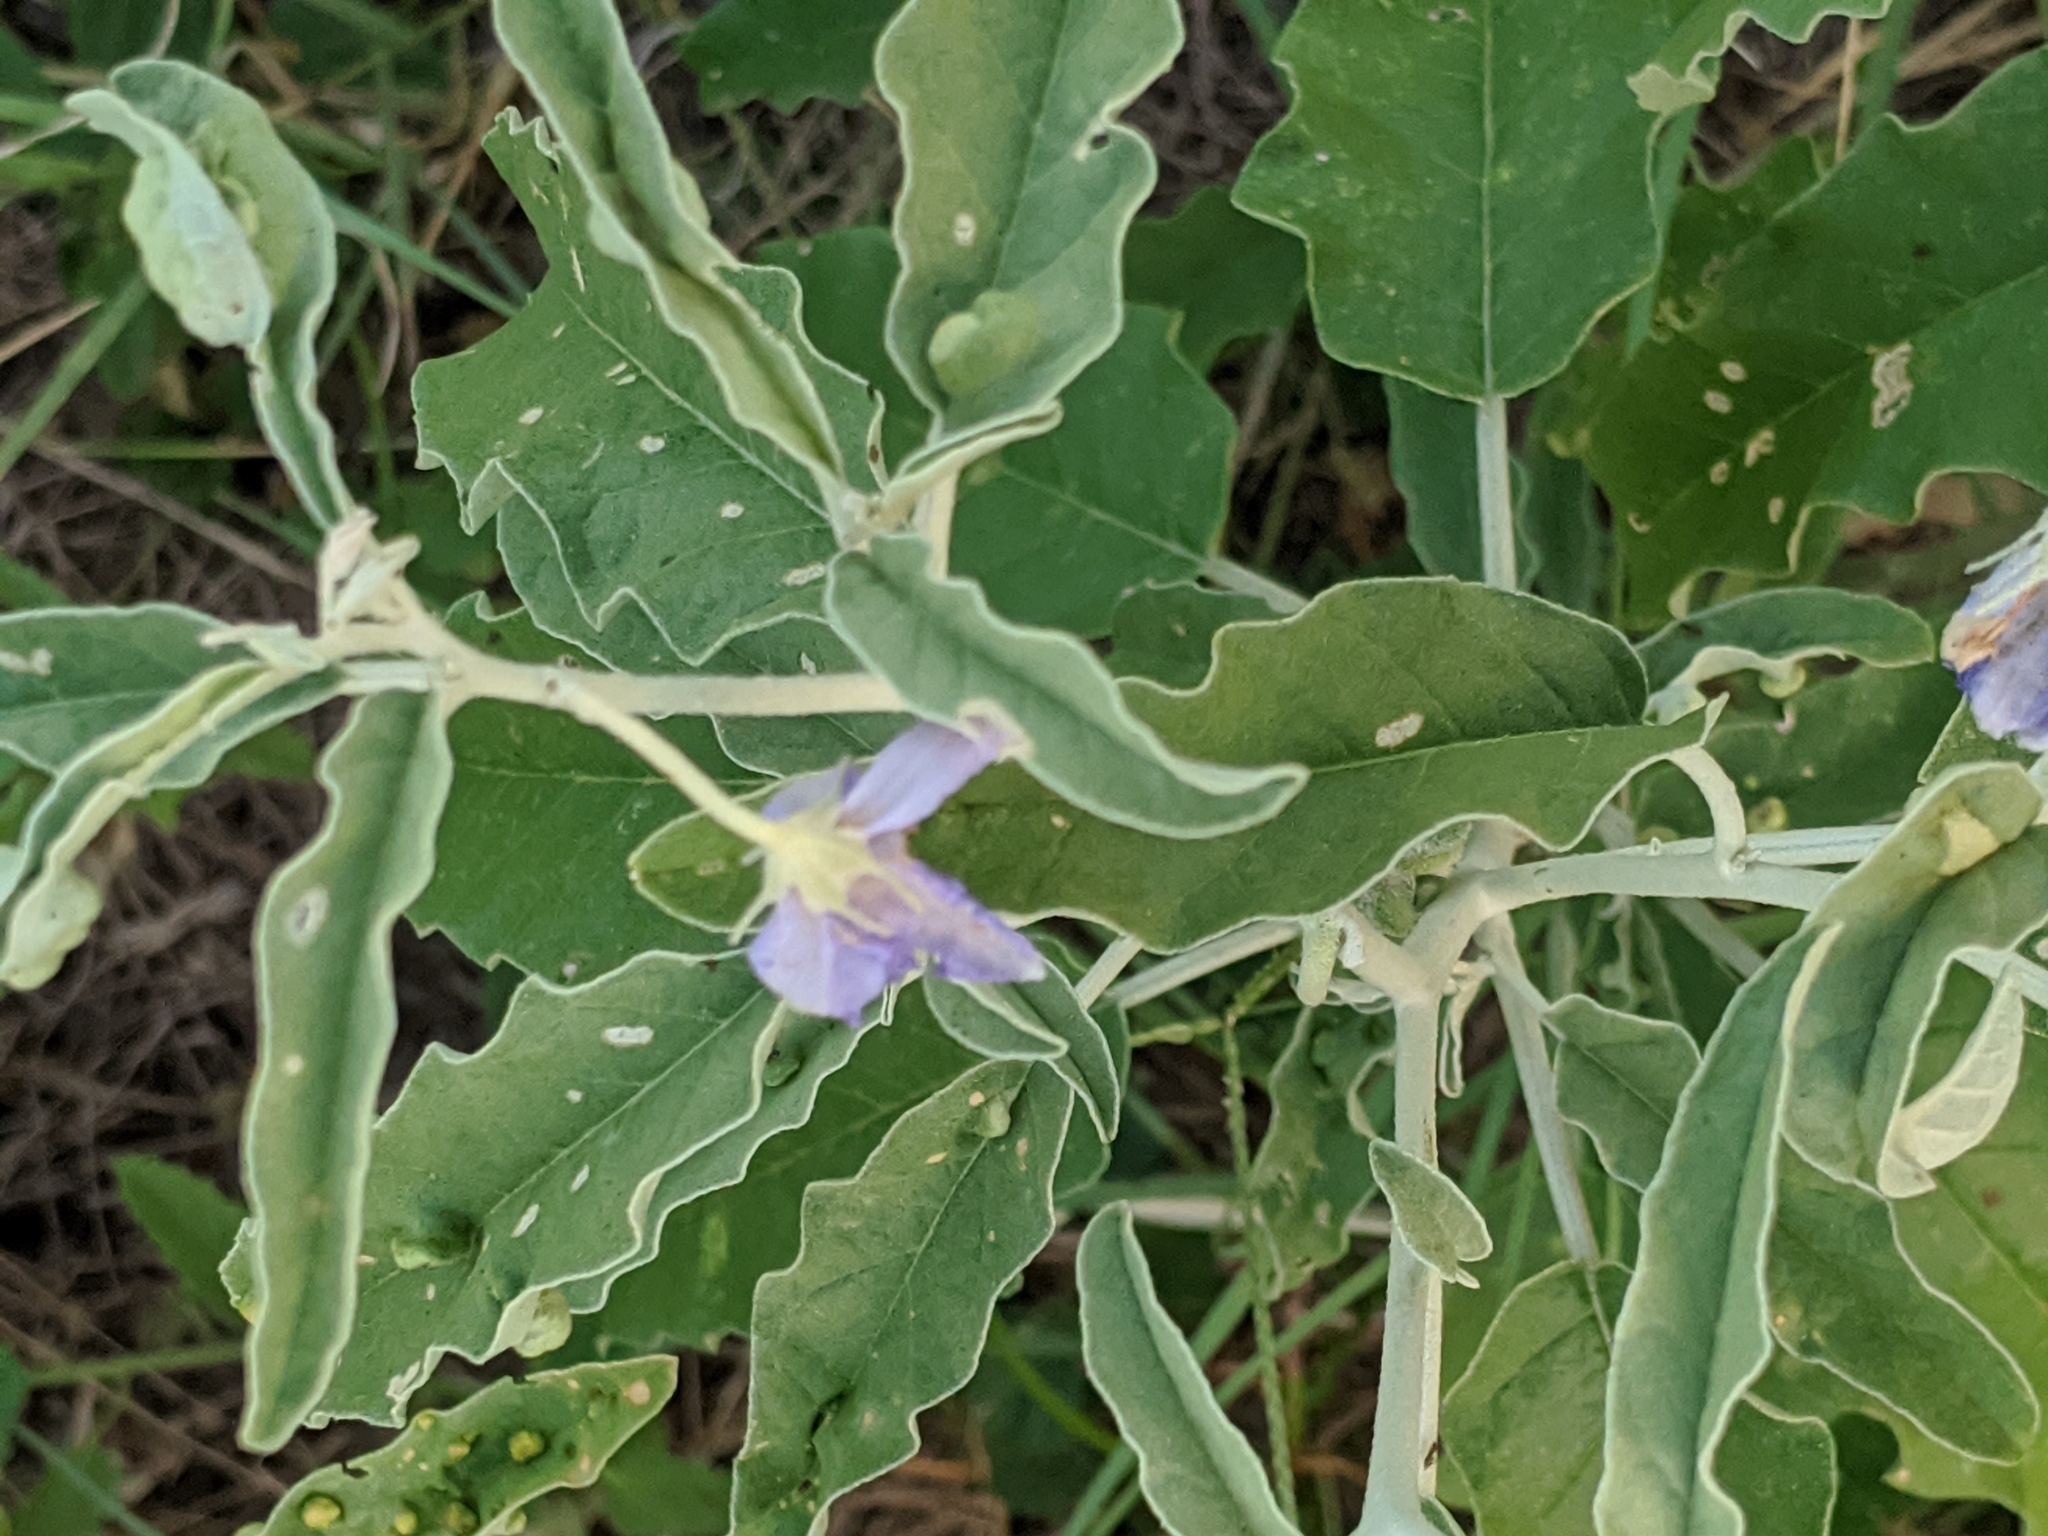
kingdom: Plantae
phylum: Tracheophyta
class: Magnoliopsida
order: Solanales
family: Solanaceae
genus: Solanum
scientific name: Solanum elaeagnifolium
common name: Silverleaf nightshade
